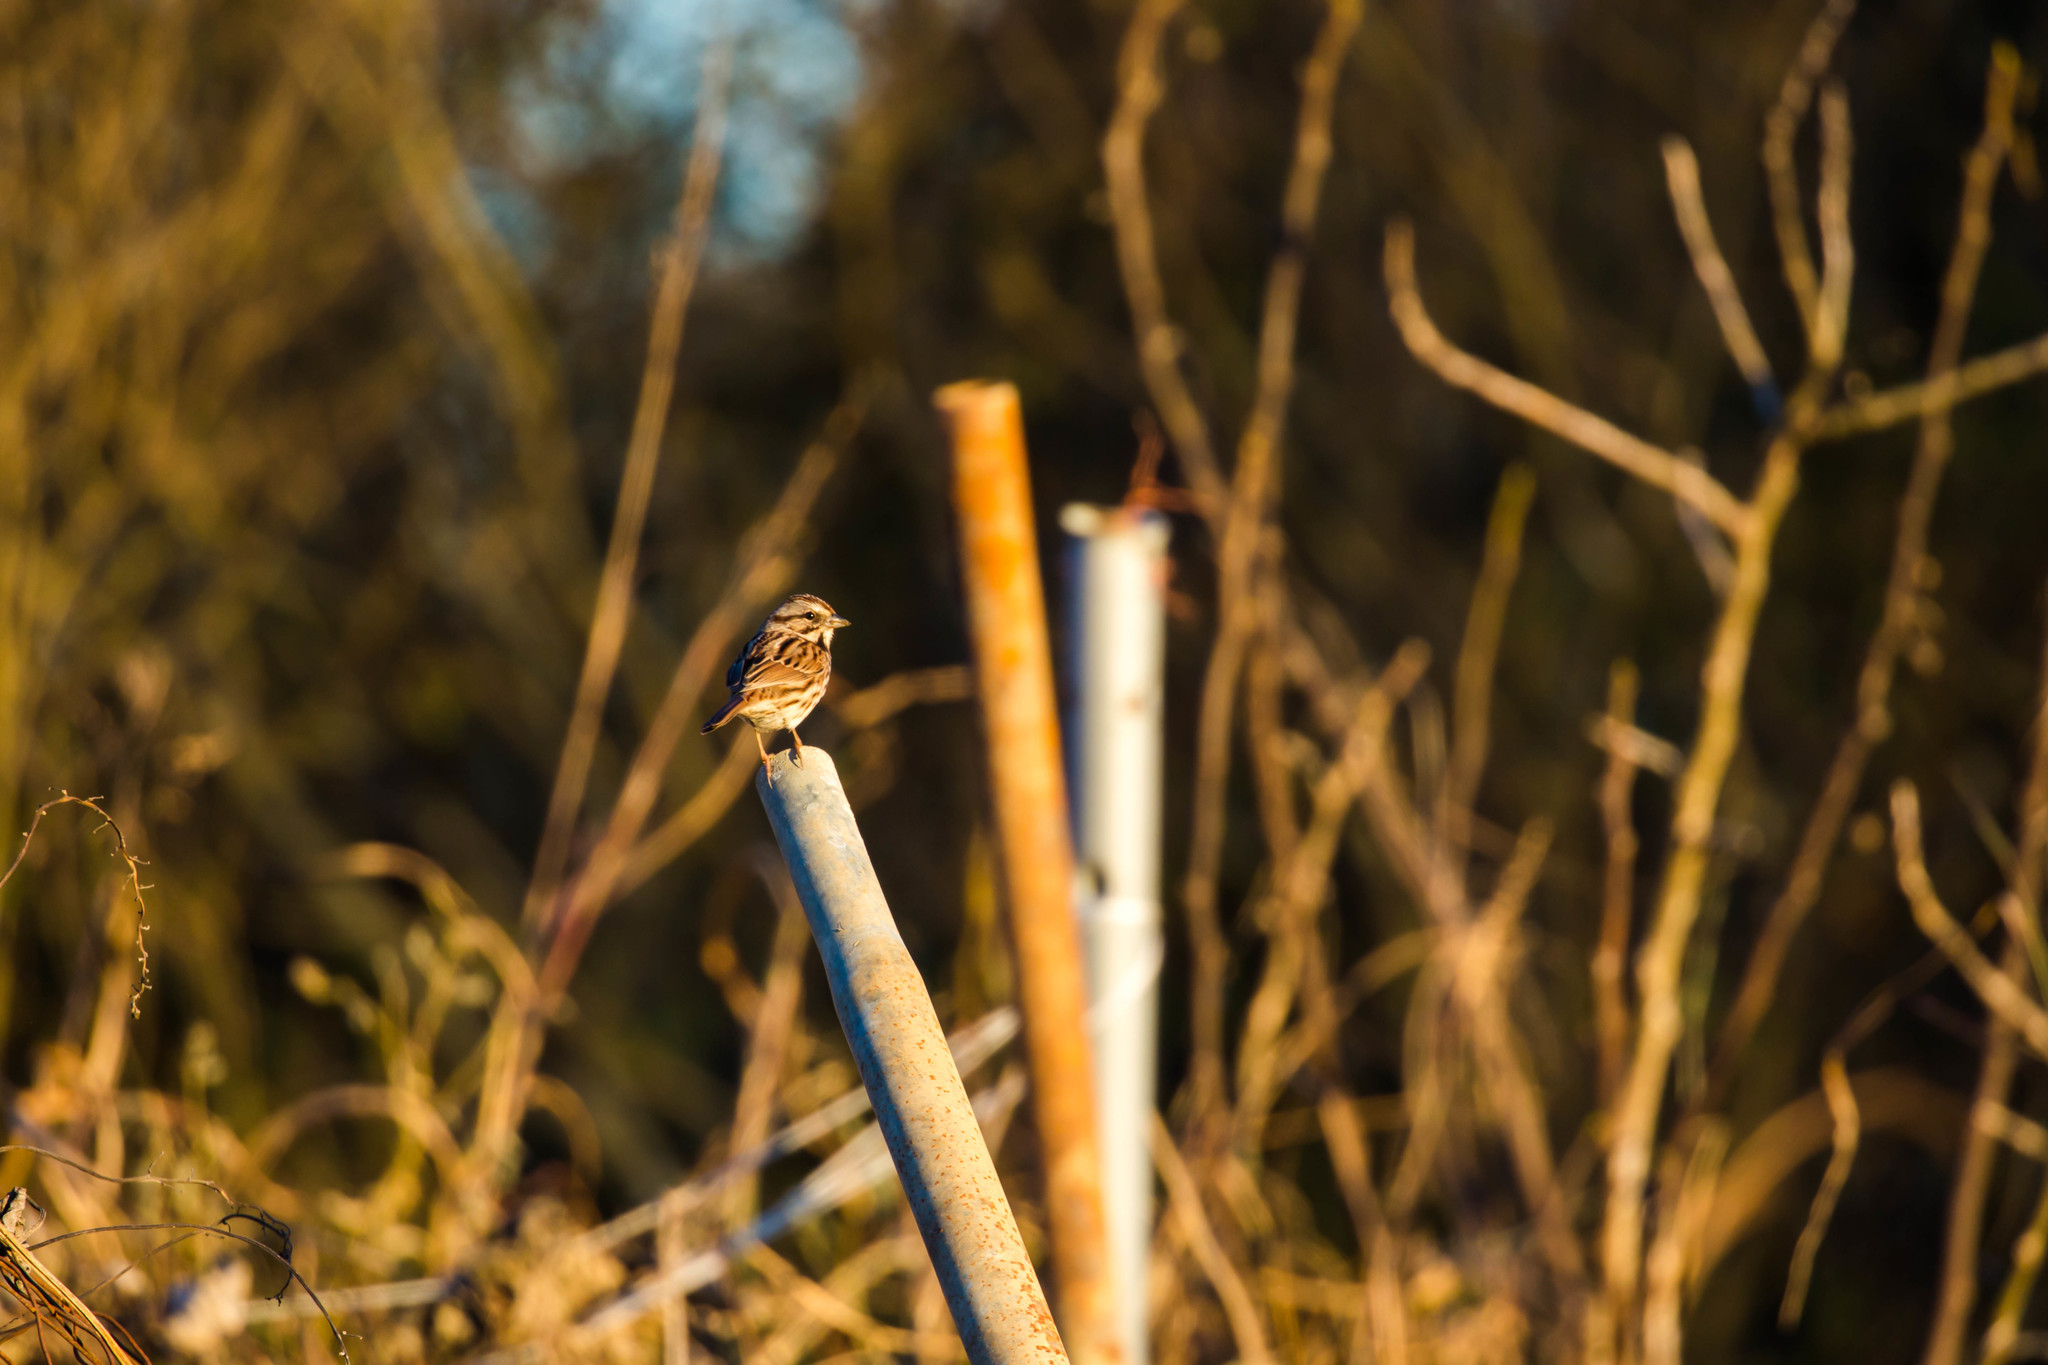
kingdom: Animalia
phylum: Chordata
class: Aves
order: Passeriformes
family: Passerellidae
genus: Melospiza
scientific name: Melospiza melodia
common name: Song sparrow
